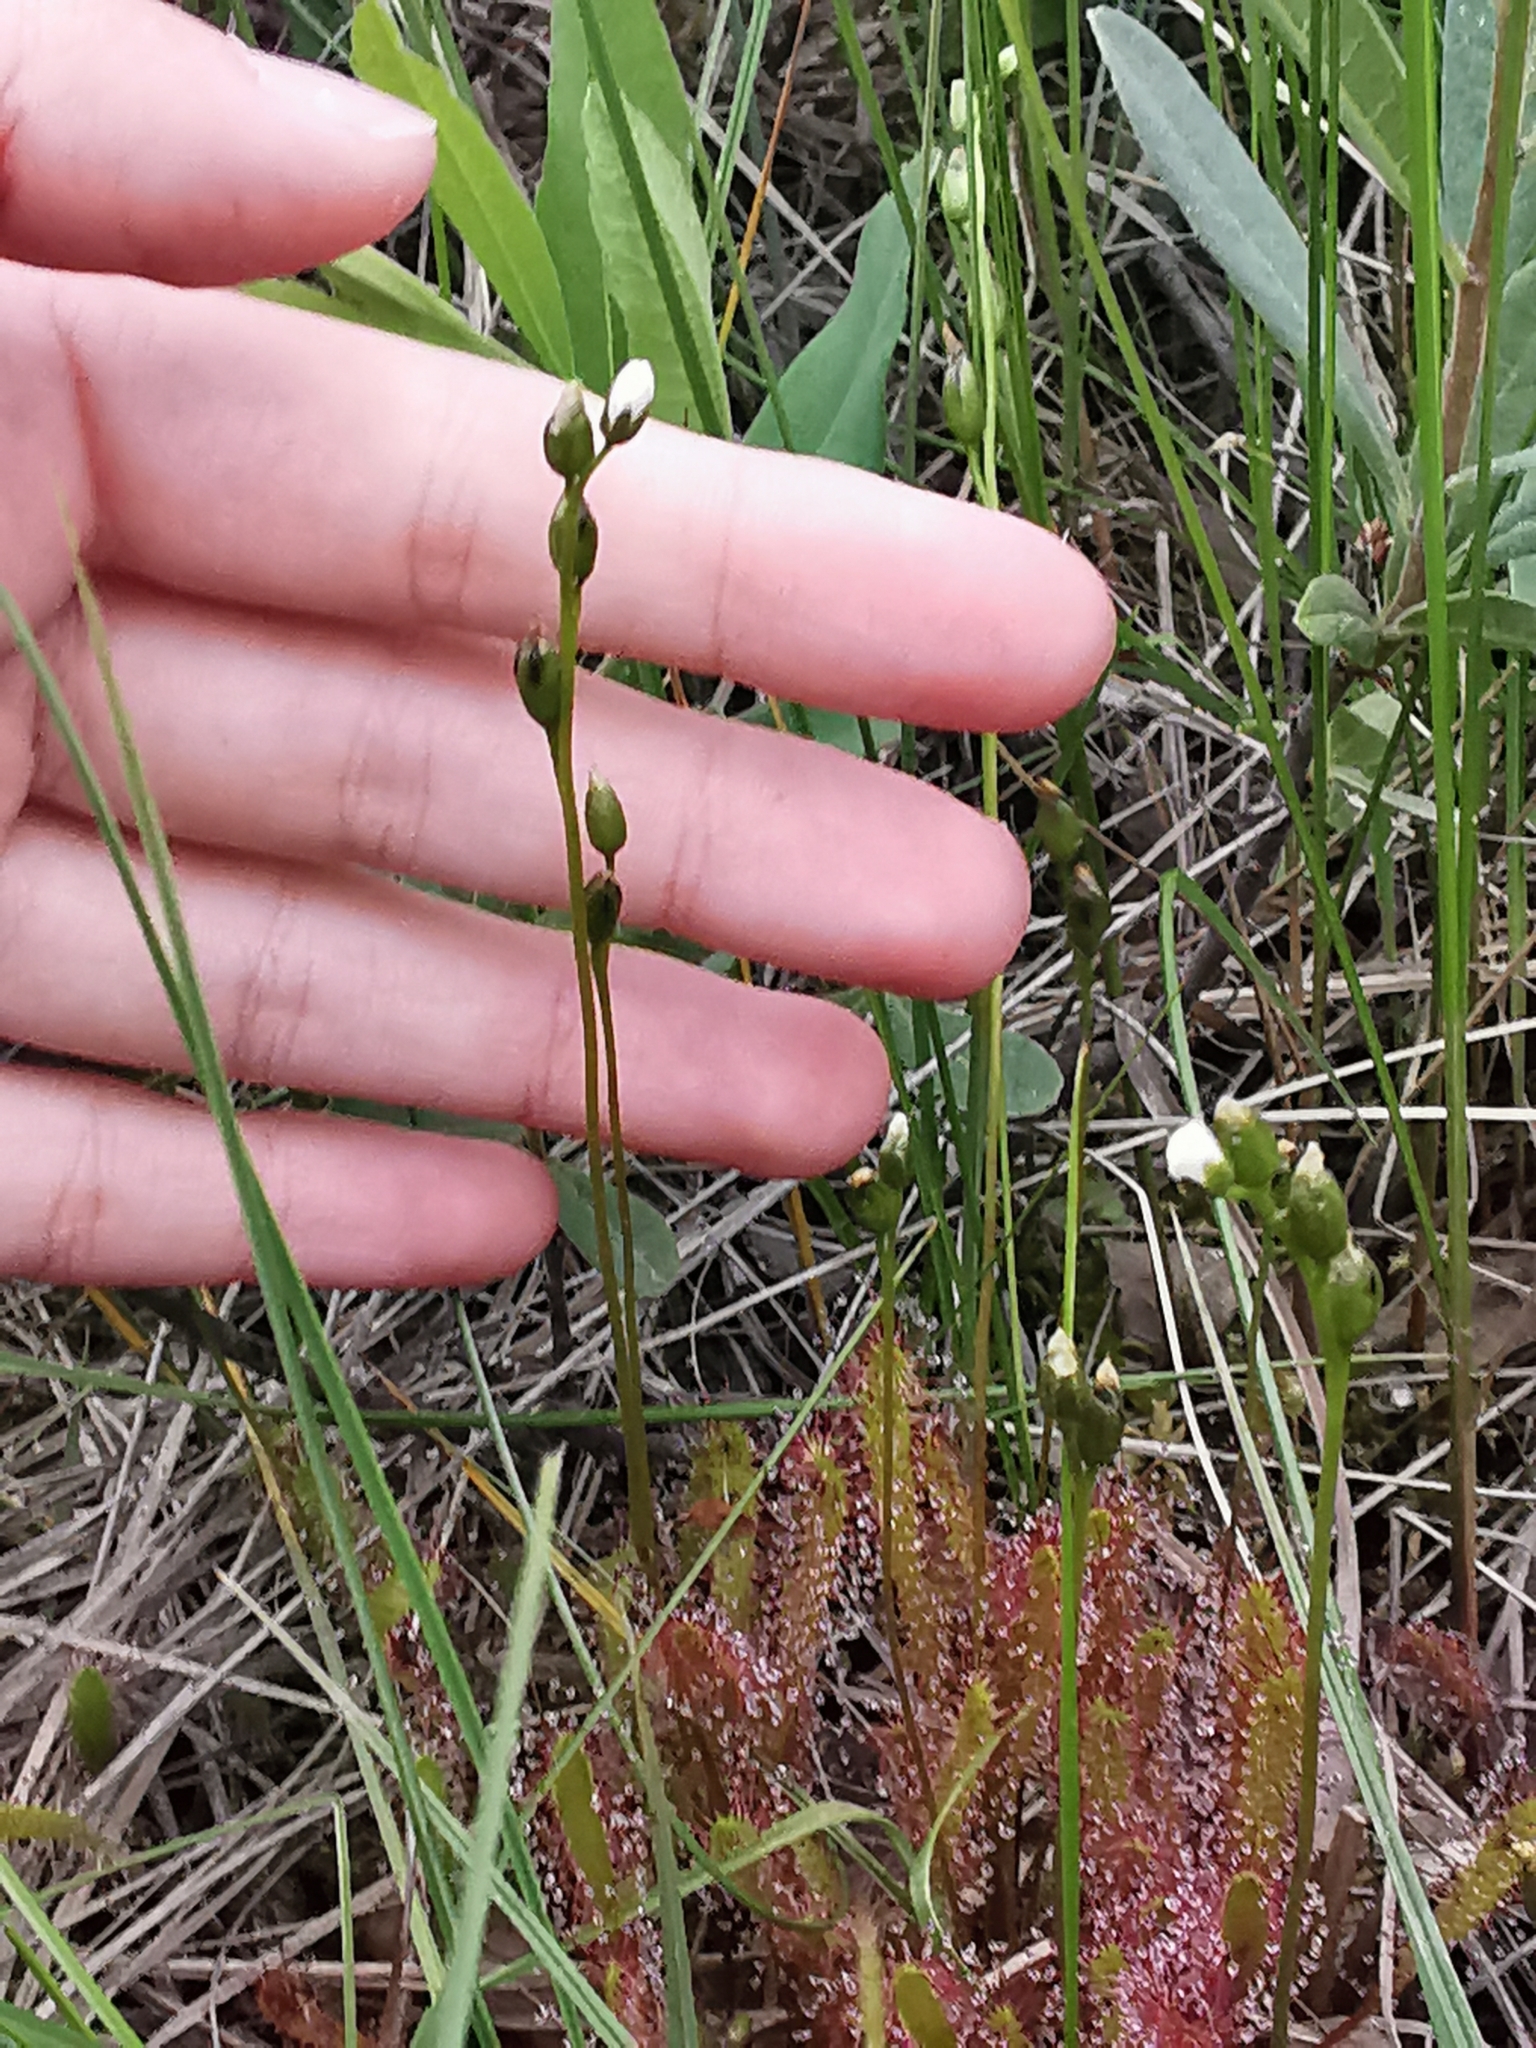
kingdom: Plantae
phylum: Tracheophyta
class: Magnoliopsida
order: Caryophyllales
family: Droseraceae
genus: Drosera
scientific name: Drosera anglica
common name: Great sundew
